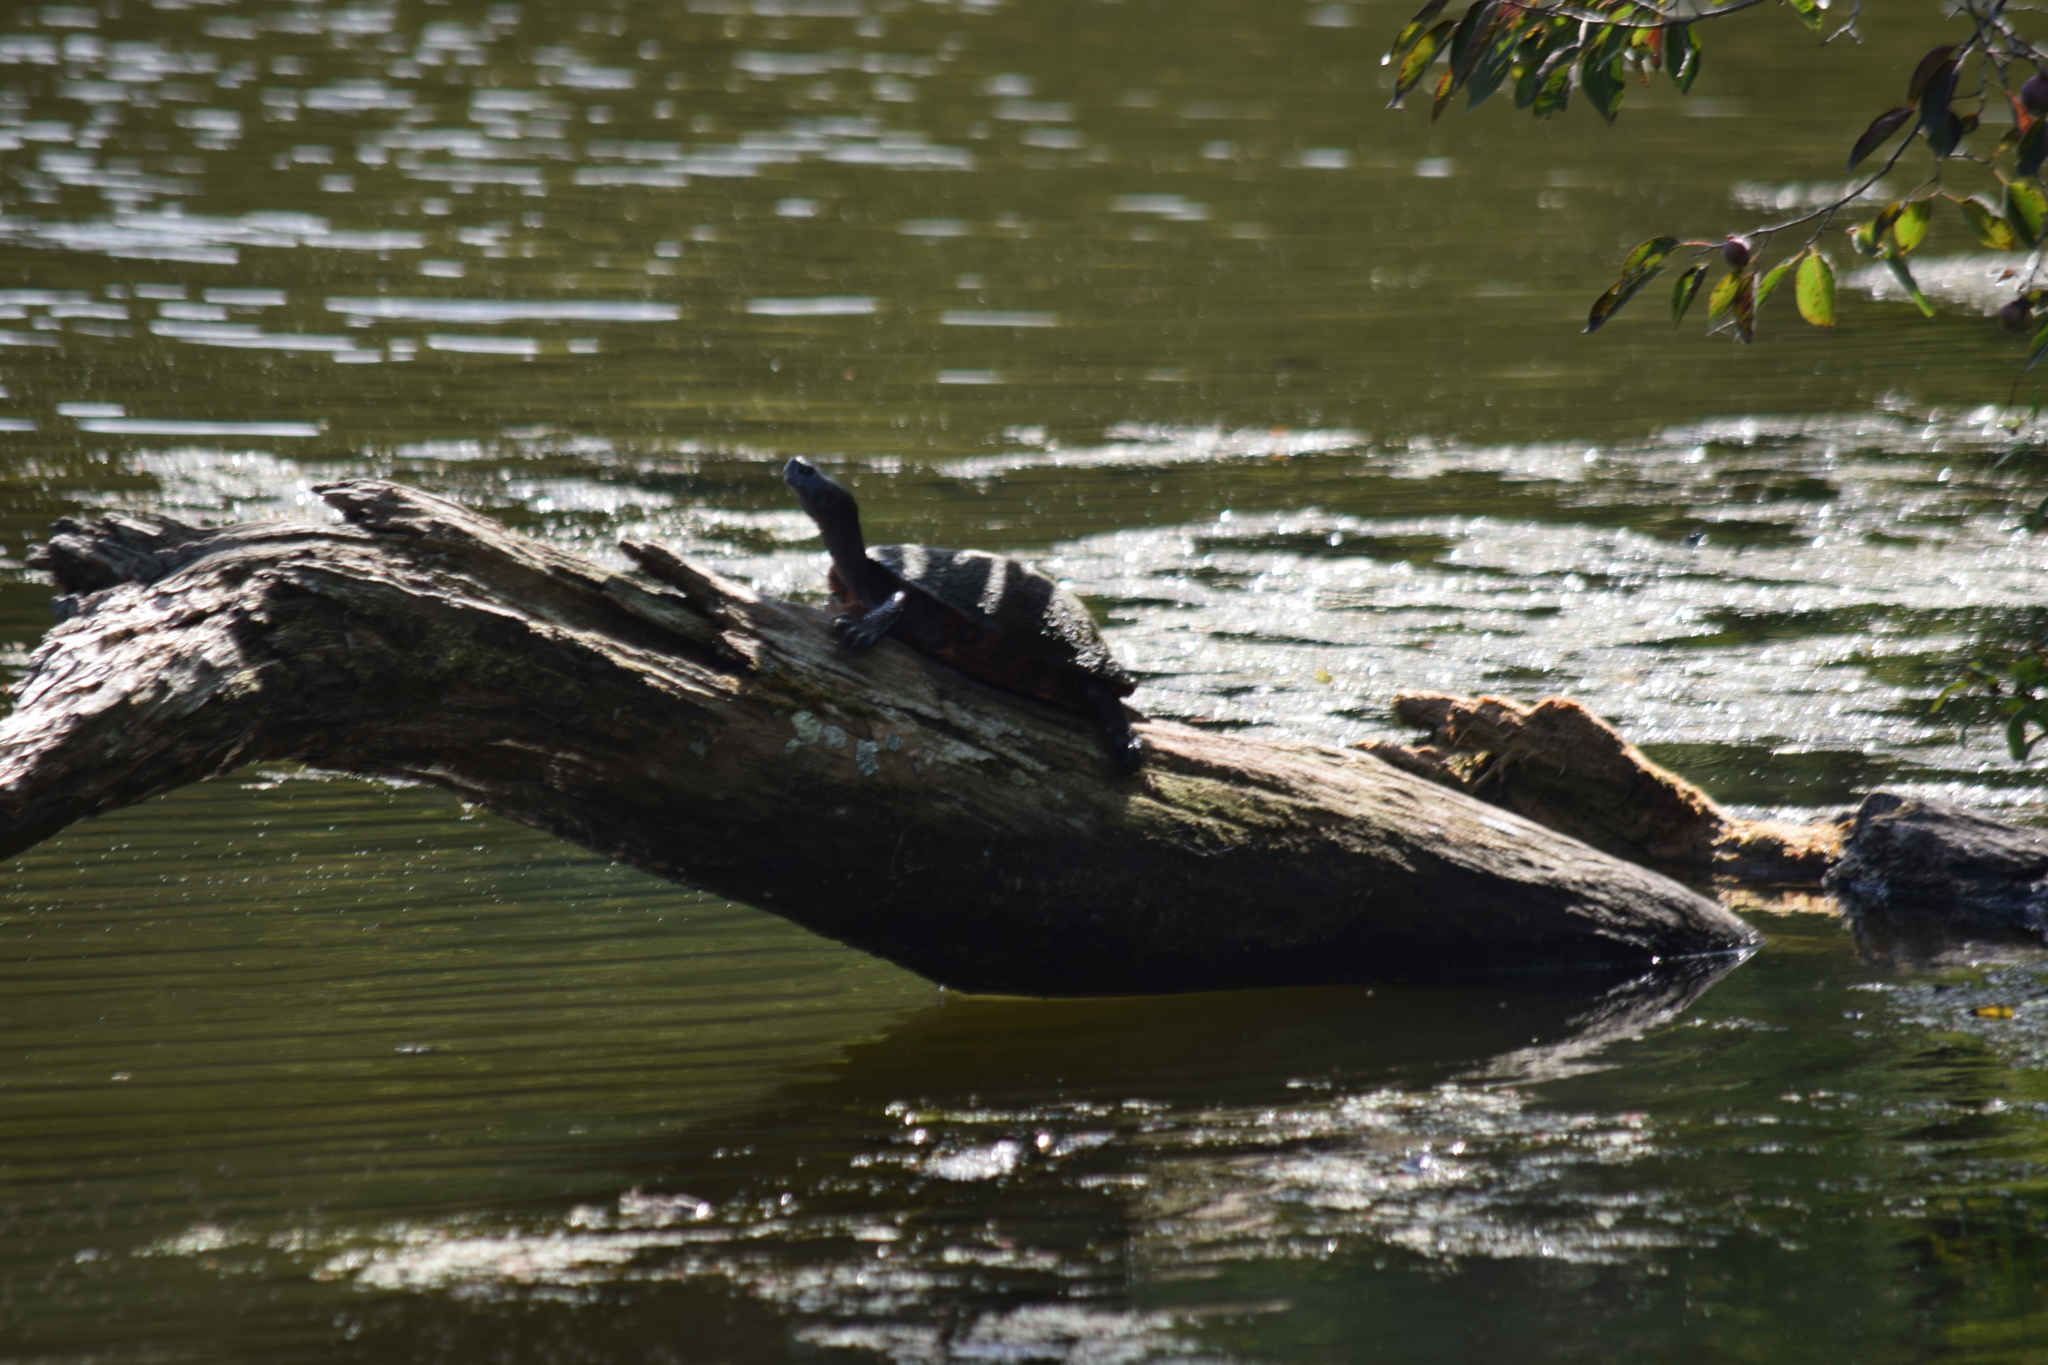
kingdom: Animalia
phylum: Chordata
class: Testudines
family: Emydidae
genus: Pseudemys
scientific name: Pseudemys rubriventris
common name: American red-bellied turtle
